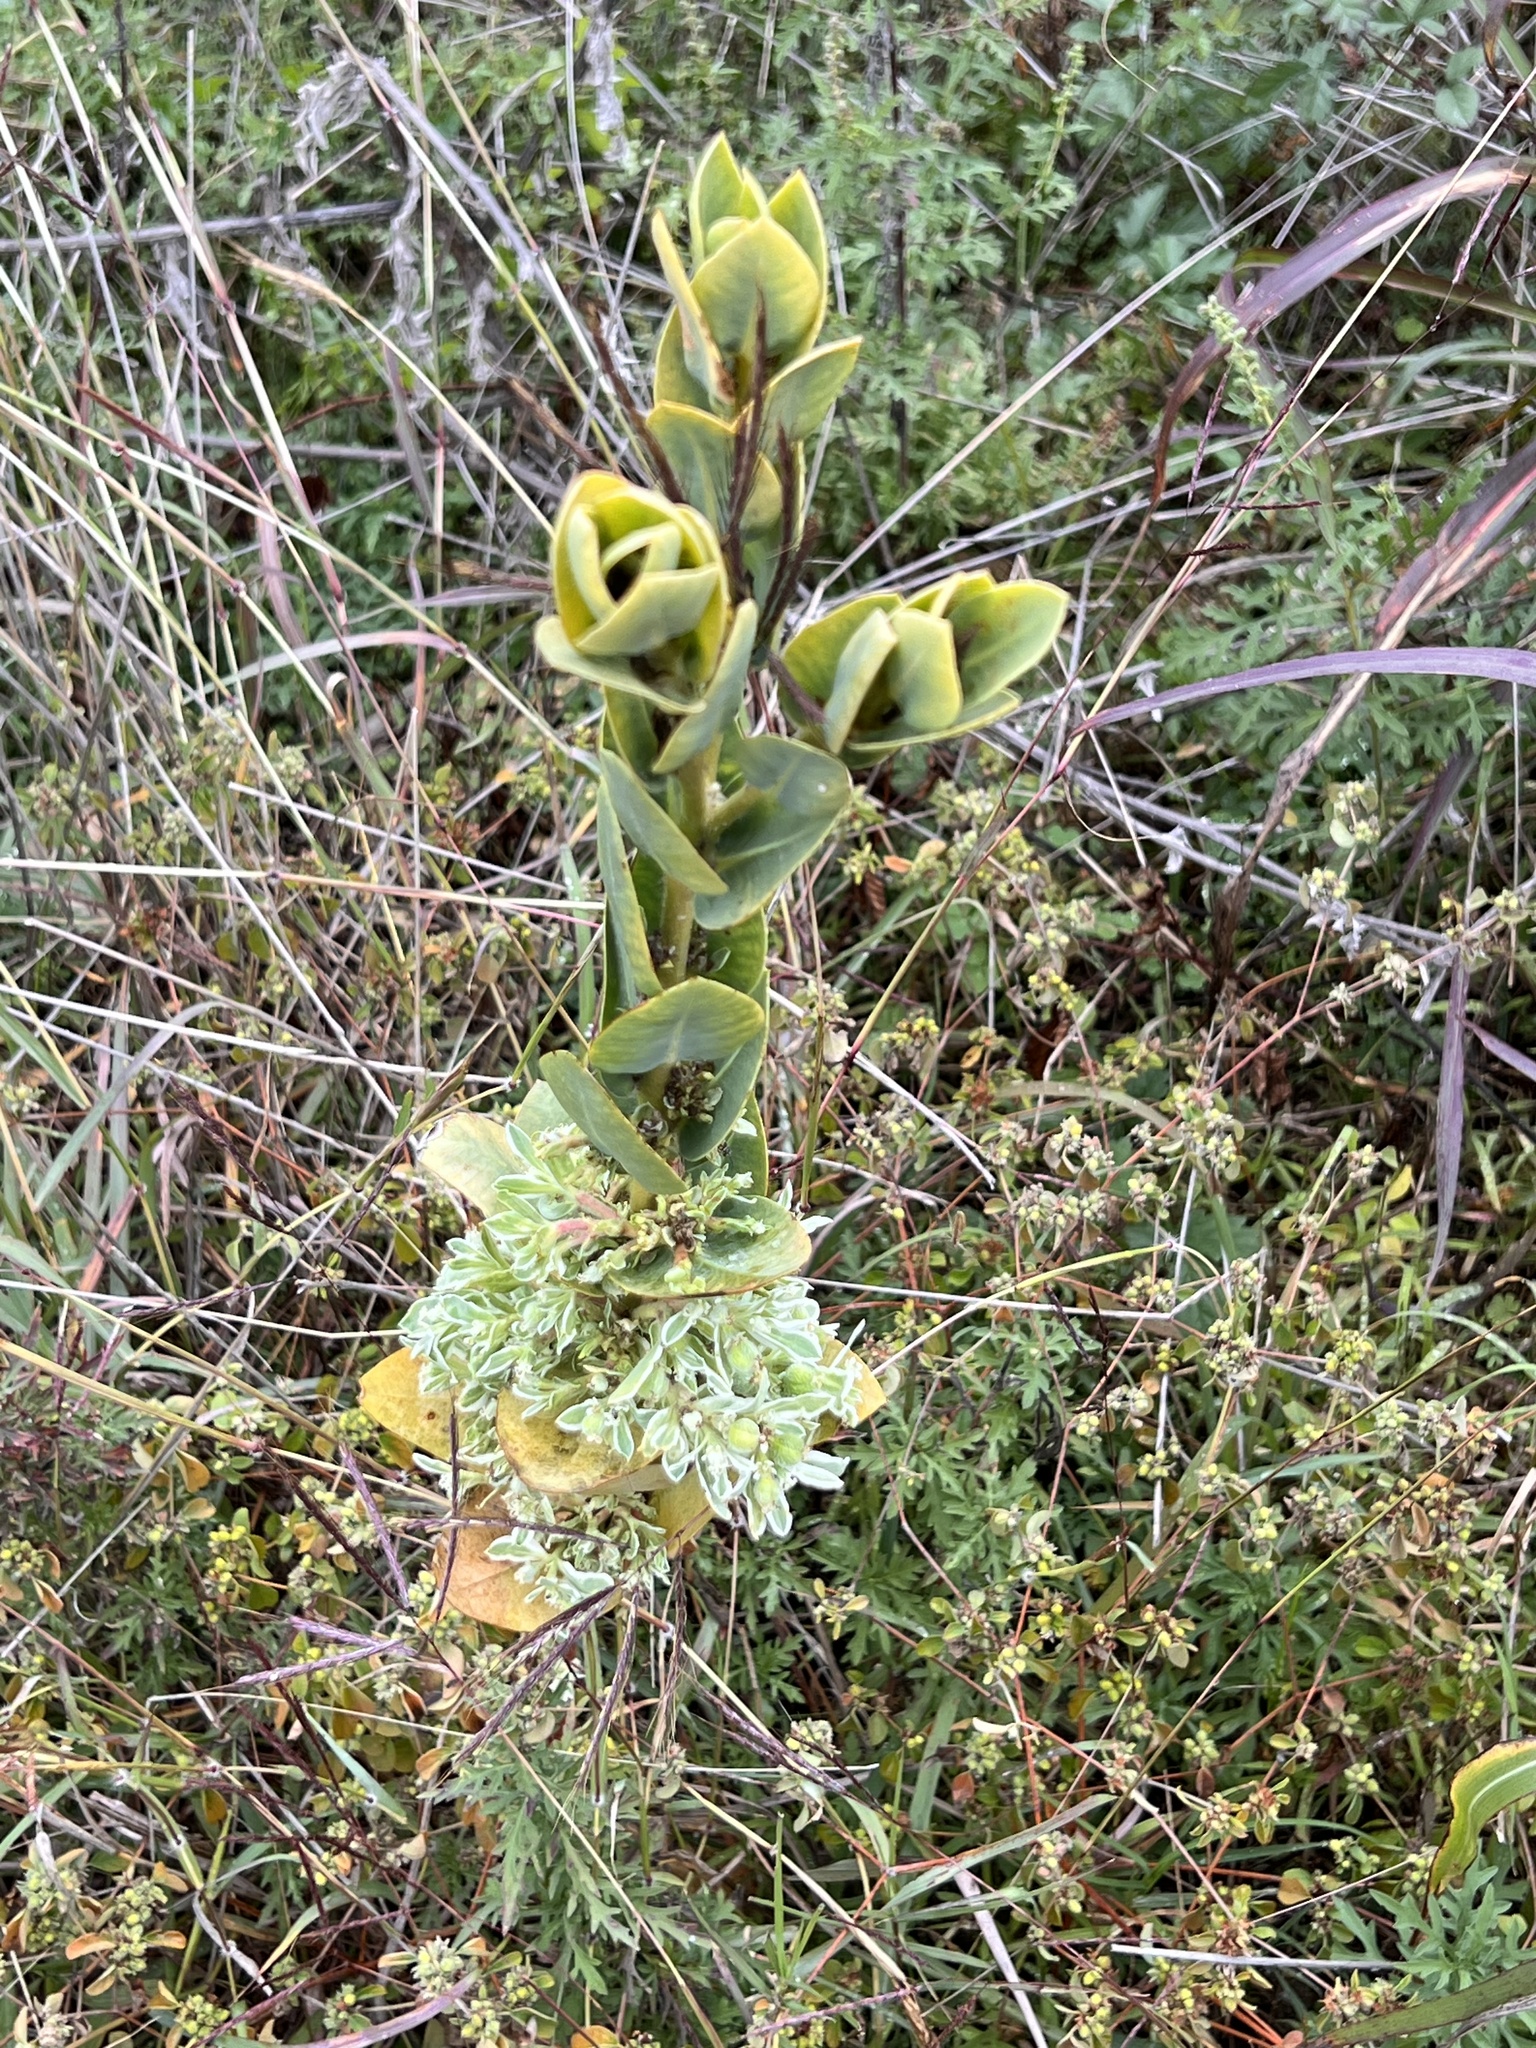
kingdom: Plantae
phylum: Tracheophyta
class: Magnoliopsida
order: Malpighiales
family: Euphorbiaceae
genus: Euphorbia
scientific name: Euphorbia marginata
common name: Ghostweed
